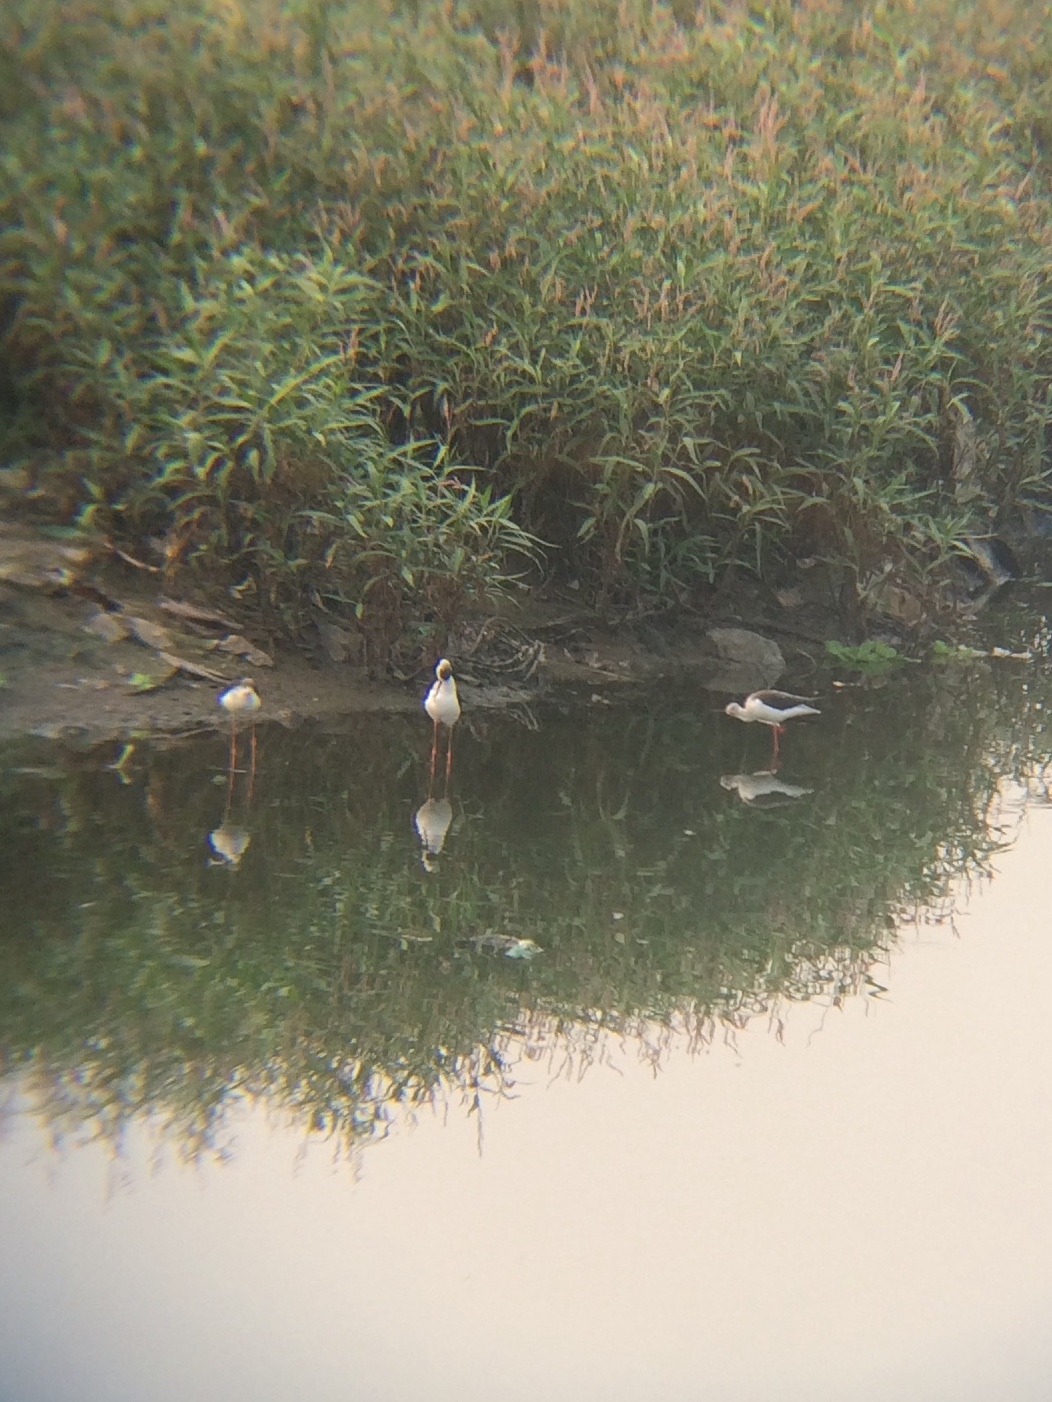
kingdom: Animalia
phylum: Chordata
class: Aves
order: Charadriiformes
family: Recurvirostridae
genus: Himantopus
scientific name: Himantopus himantopus
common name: Black-winged stilt
